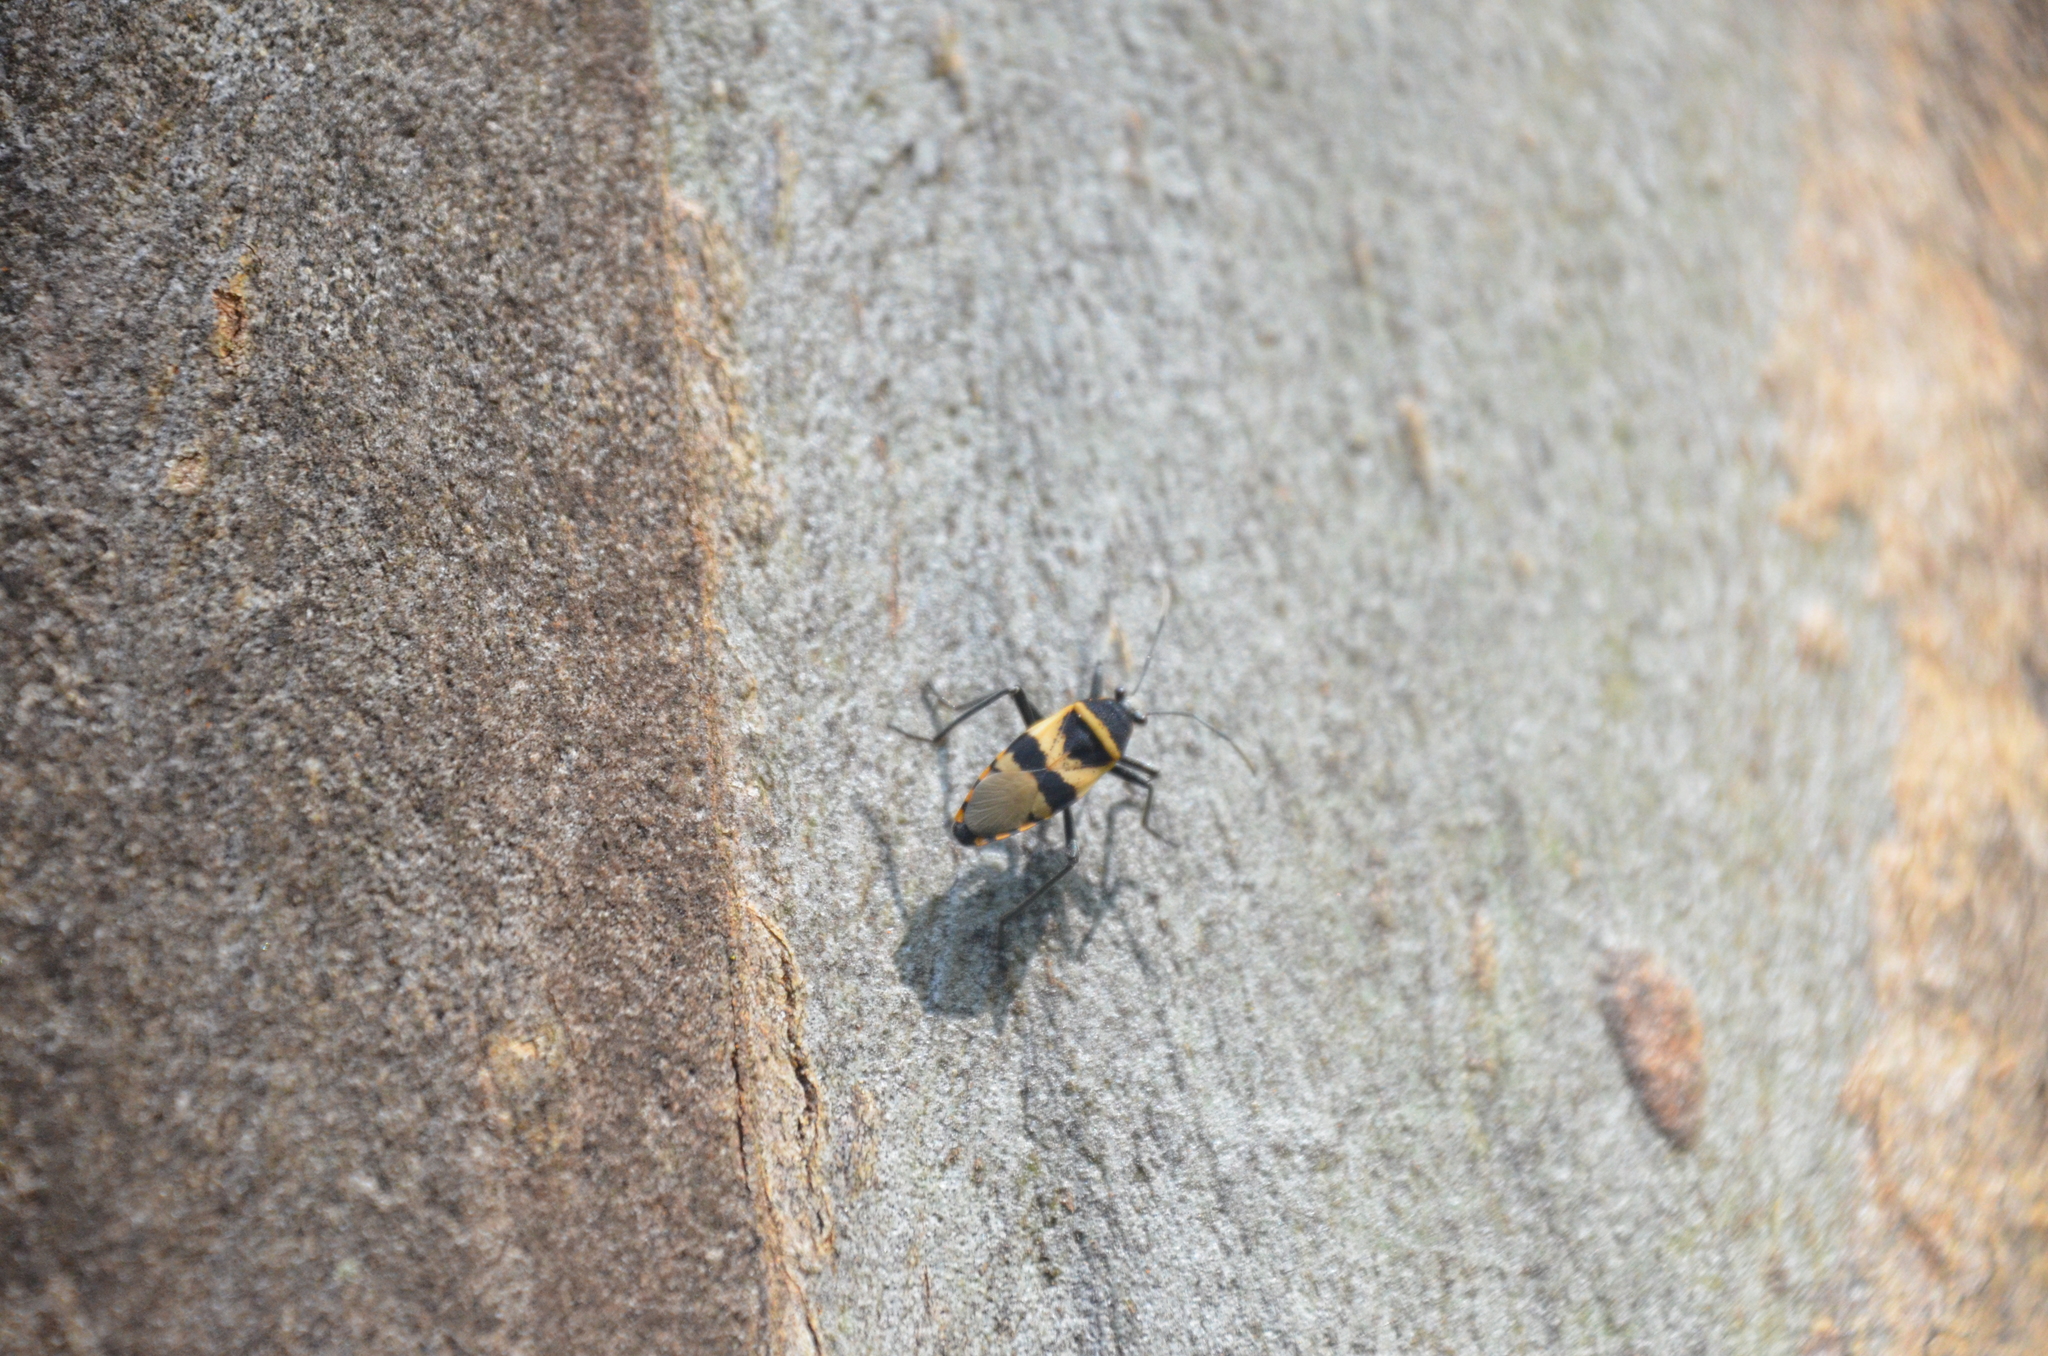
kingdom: Animalia
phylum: Arthropoda
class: Insecta
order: Hemiptera
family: Largidae
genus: Largus
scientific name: Largus fasciatus
